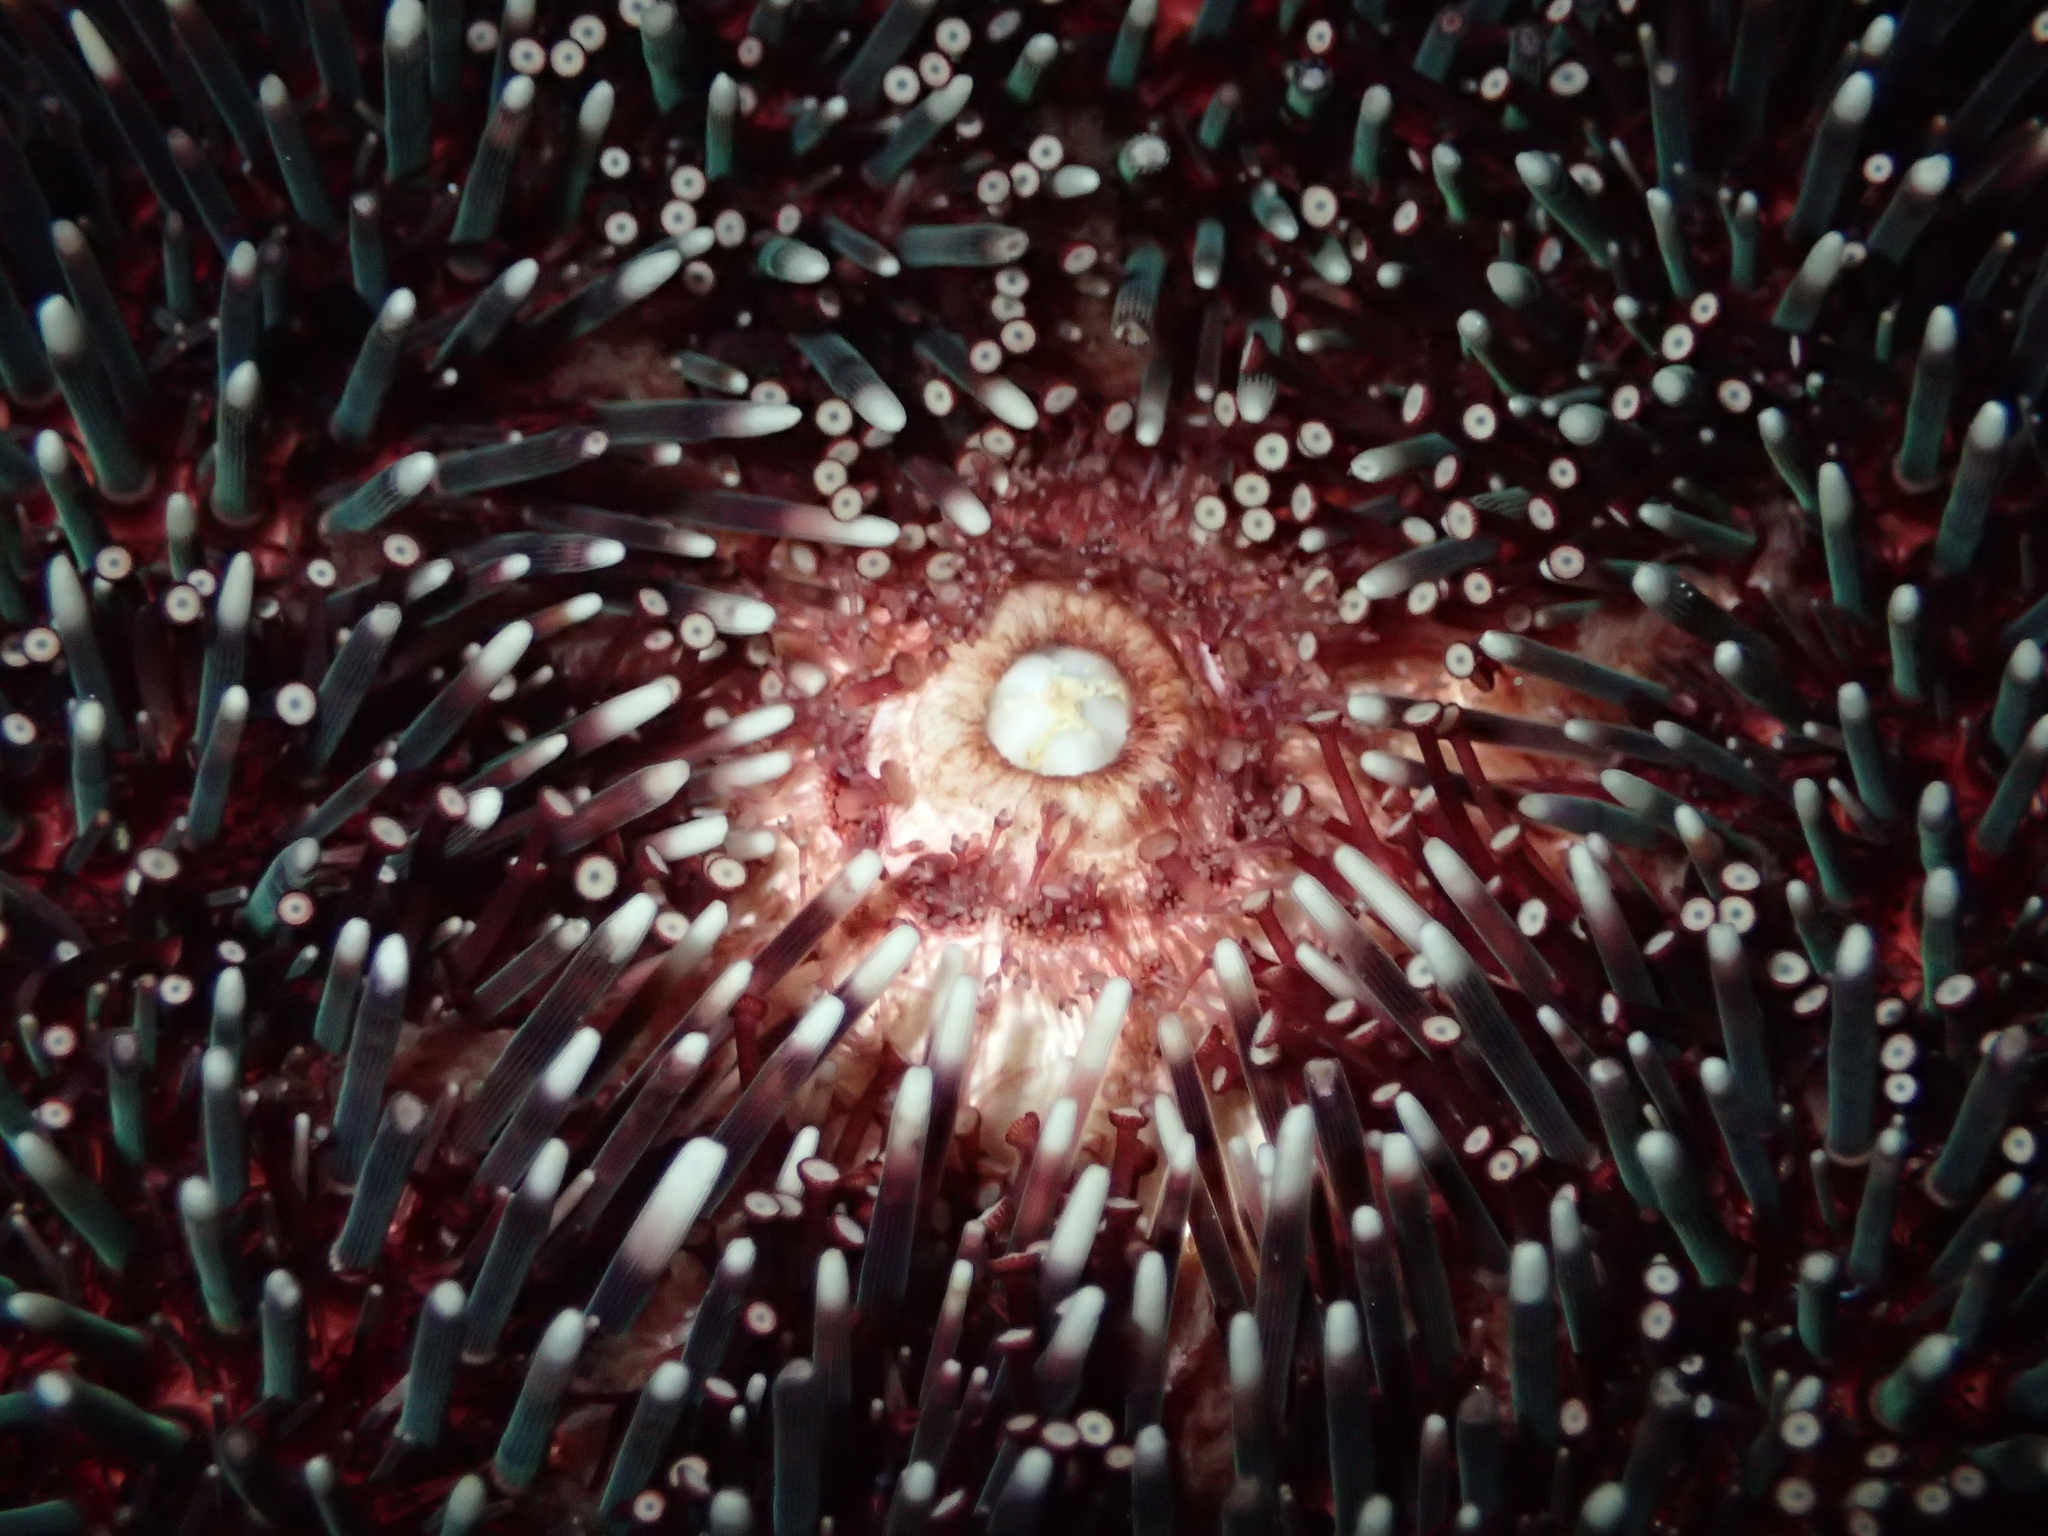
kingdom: Animalia
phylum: Echinodermata
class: Echinoidea
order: Camarodonta
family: Toxopneustidae
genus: Sphaerechinus
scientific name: Sphaerechinus granularis
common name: Violet sea urchin
